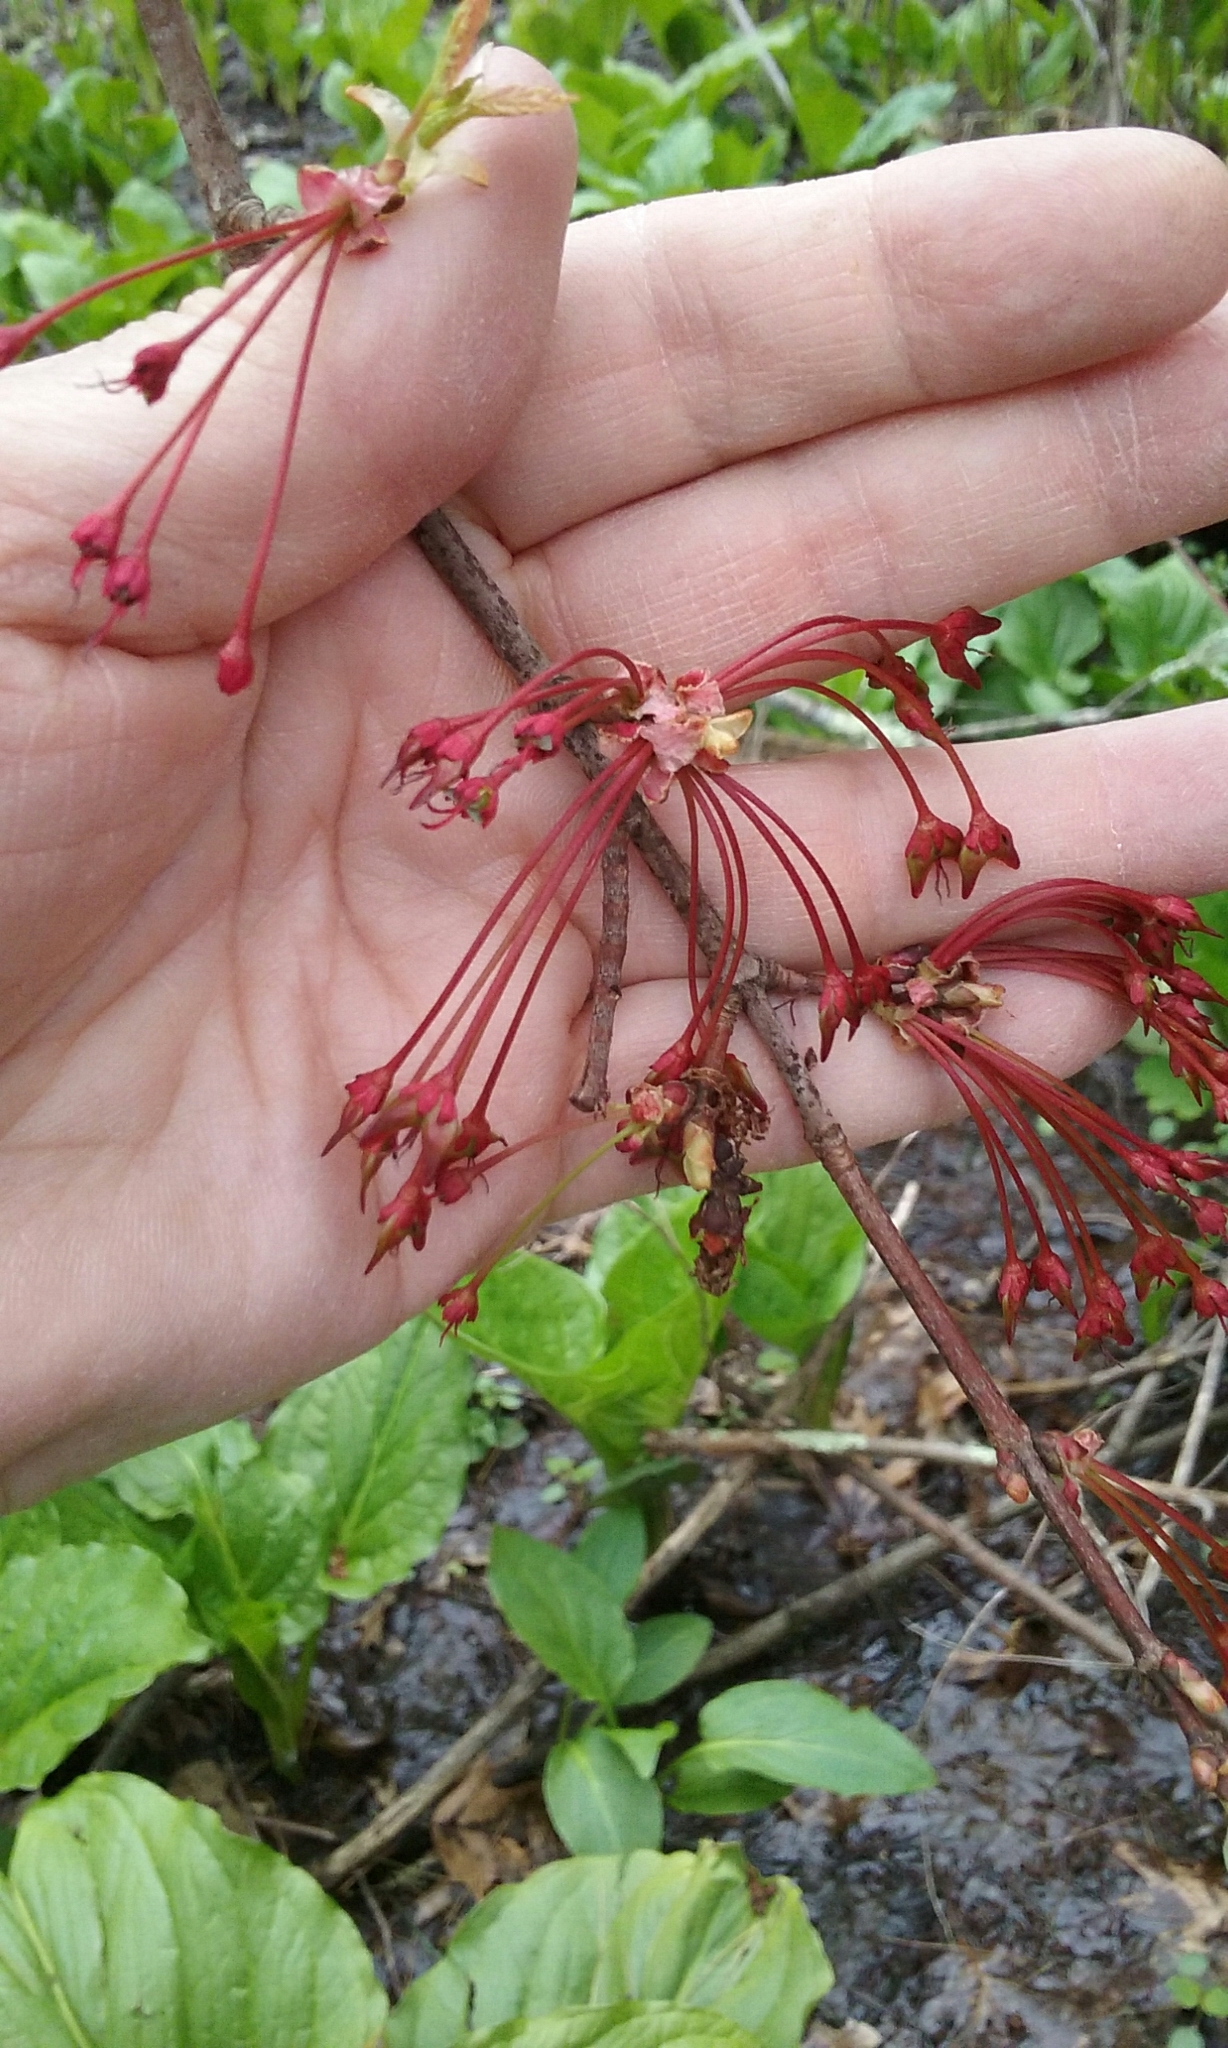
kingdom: Plantae
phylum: Tracheophyta
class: Magnoliopsida
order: Sapindales
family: Sapindaceae
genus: Acer
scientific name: Acer rubrum
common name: Red maple
